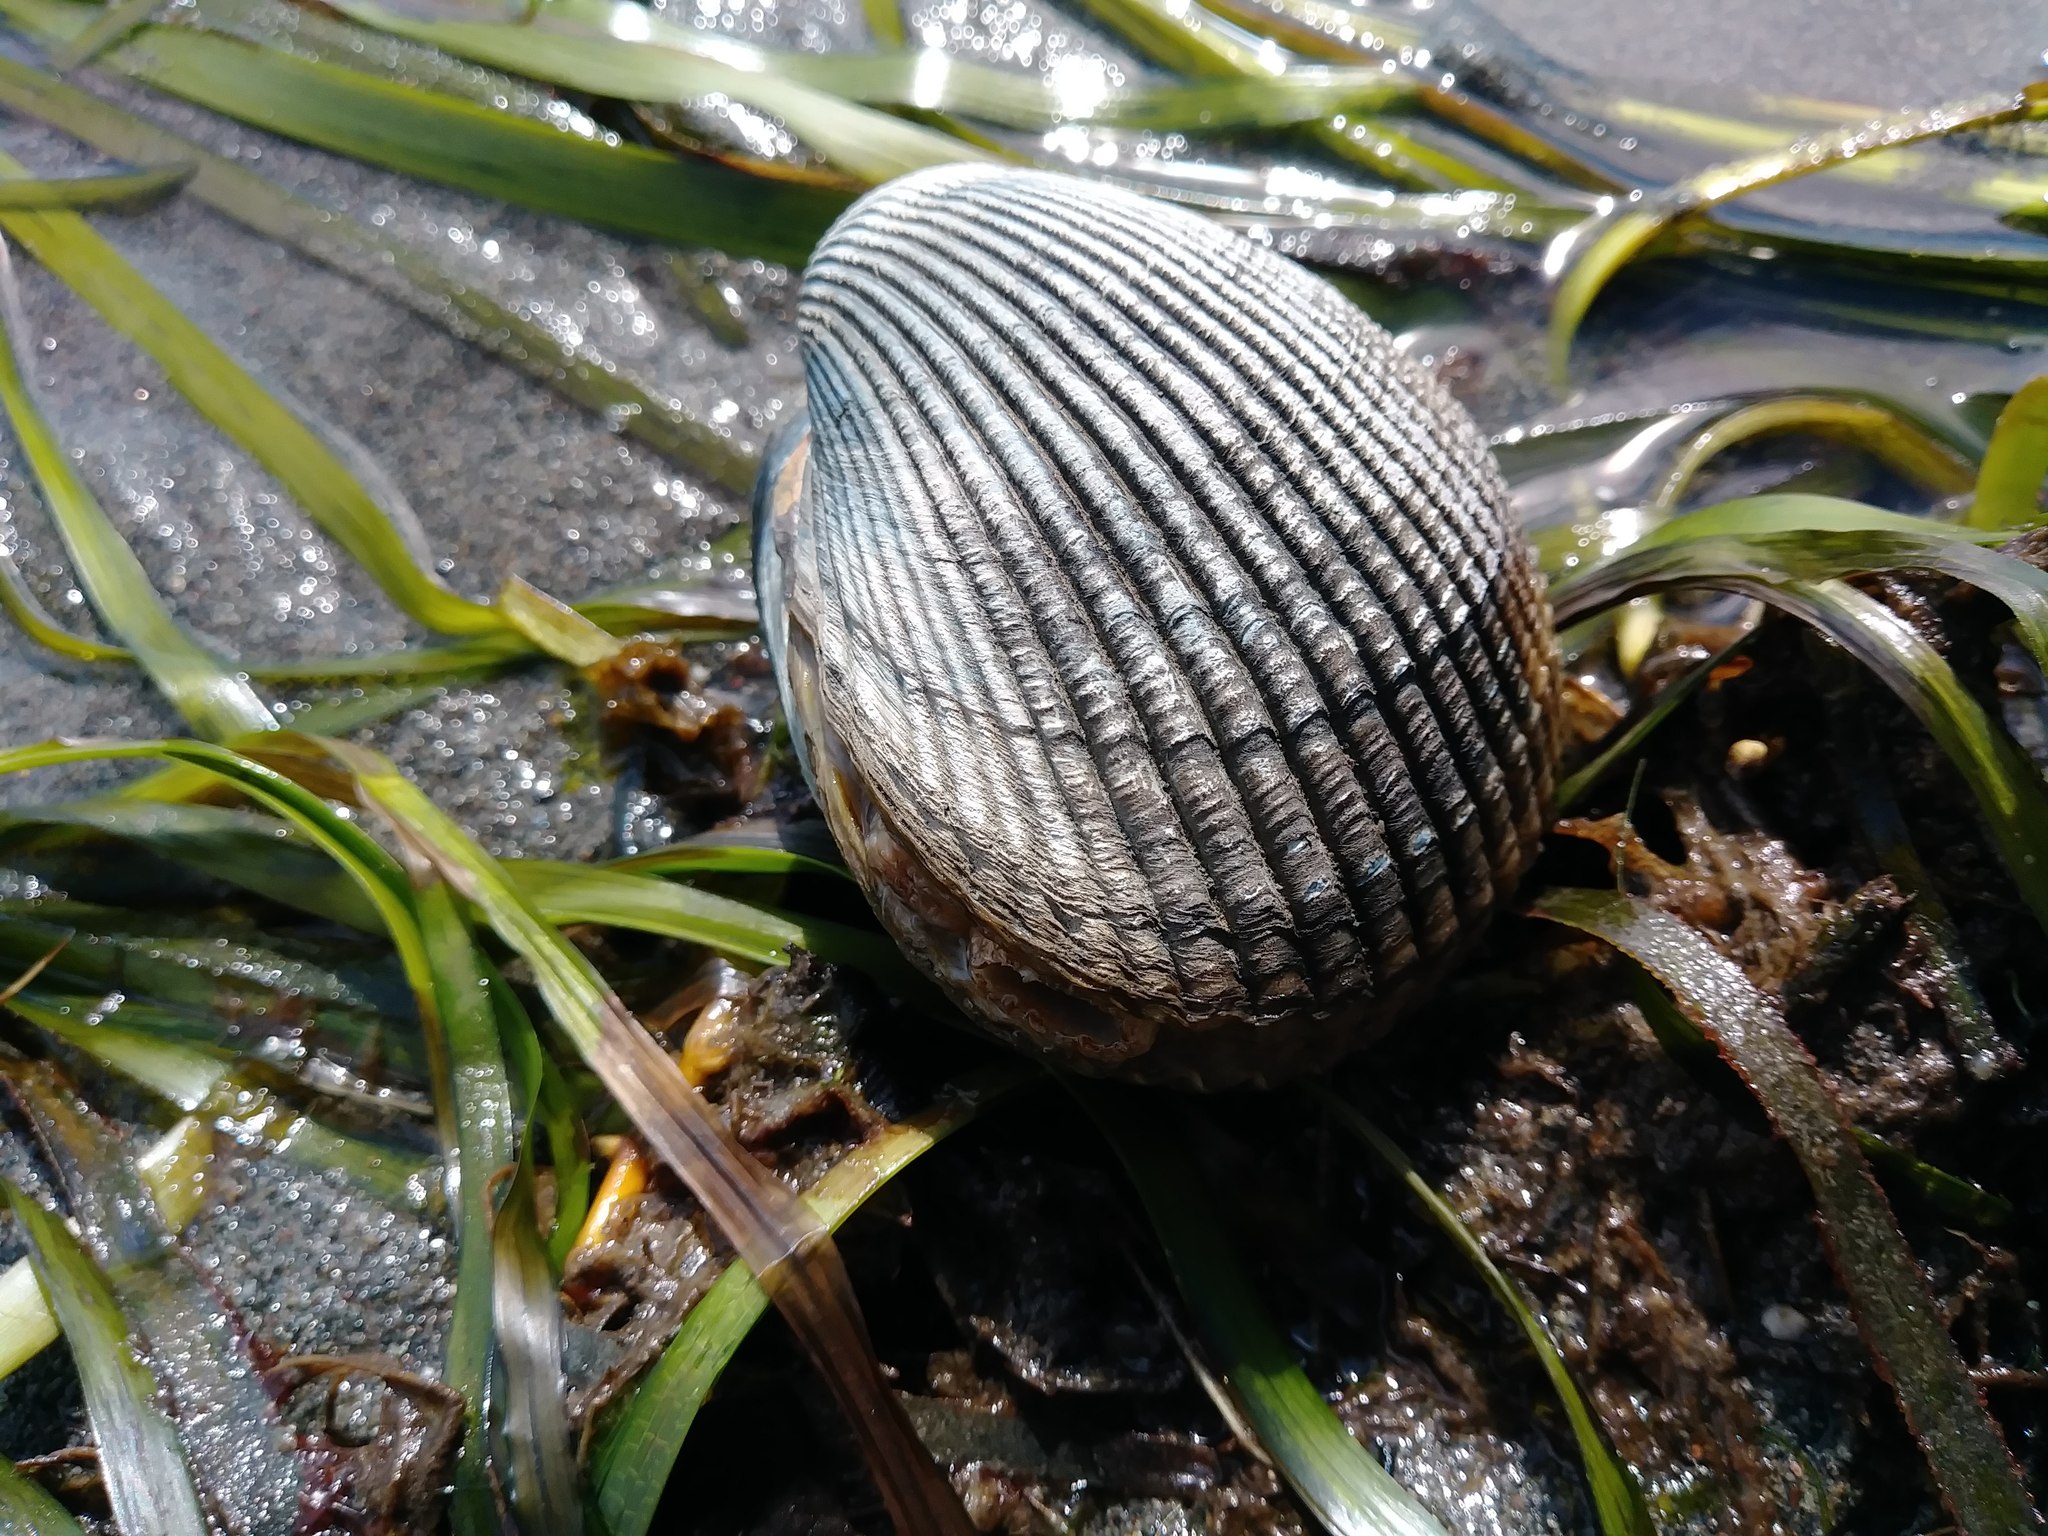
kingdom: Animalia
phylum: Mollusca
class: Bivalvia
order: Cardiida
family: Cardiidae
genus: Clinocardium
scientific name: Clinocardium nuttallii
